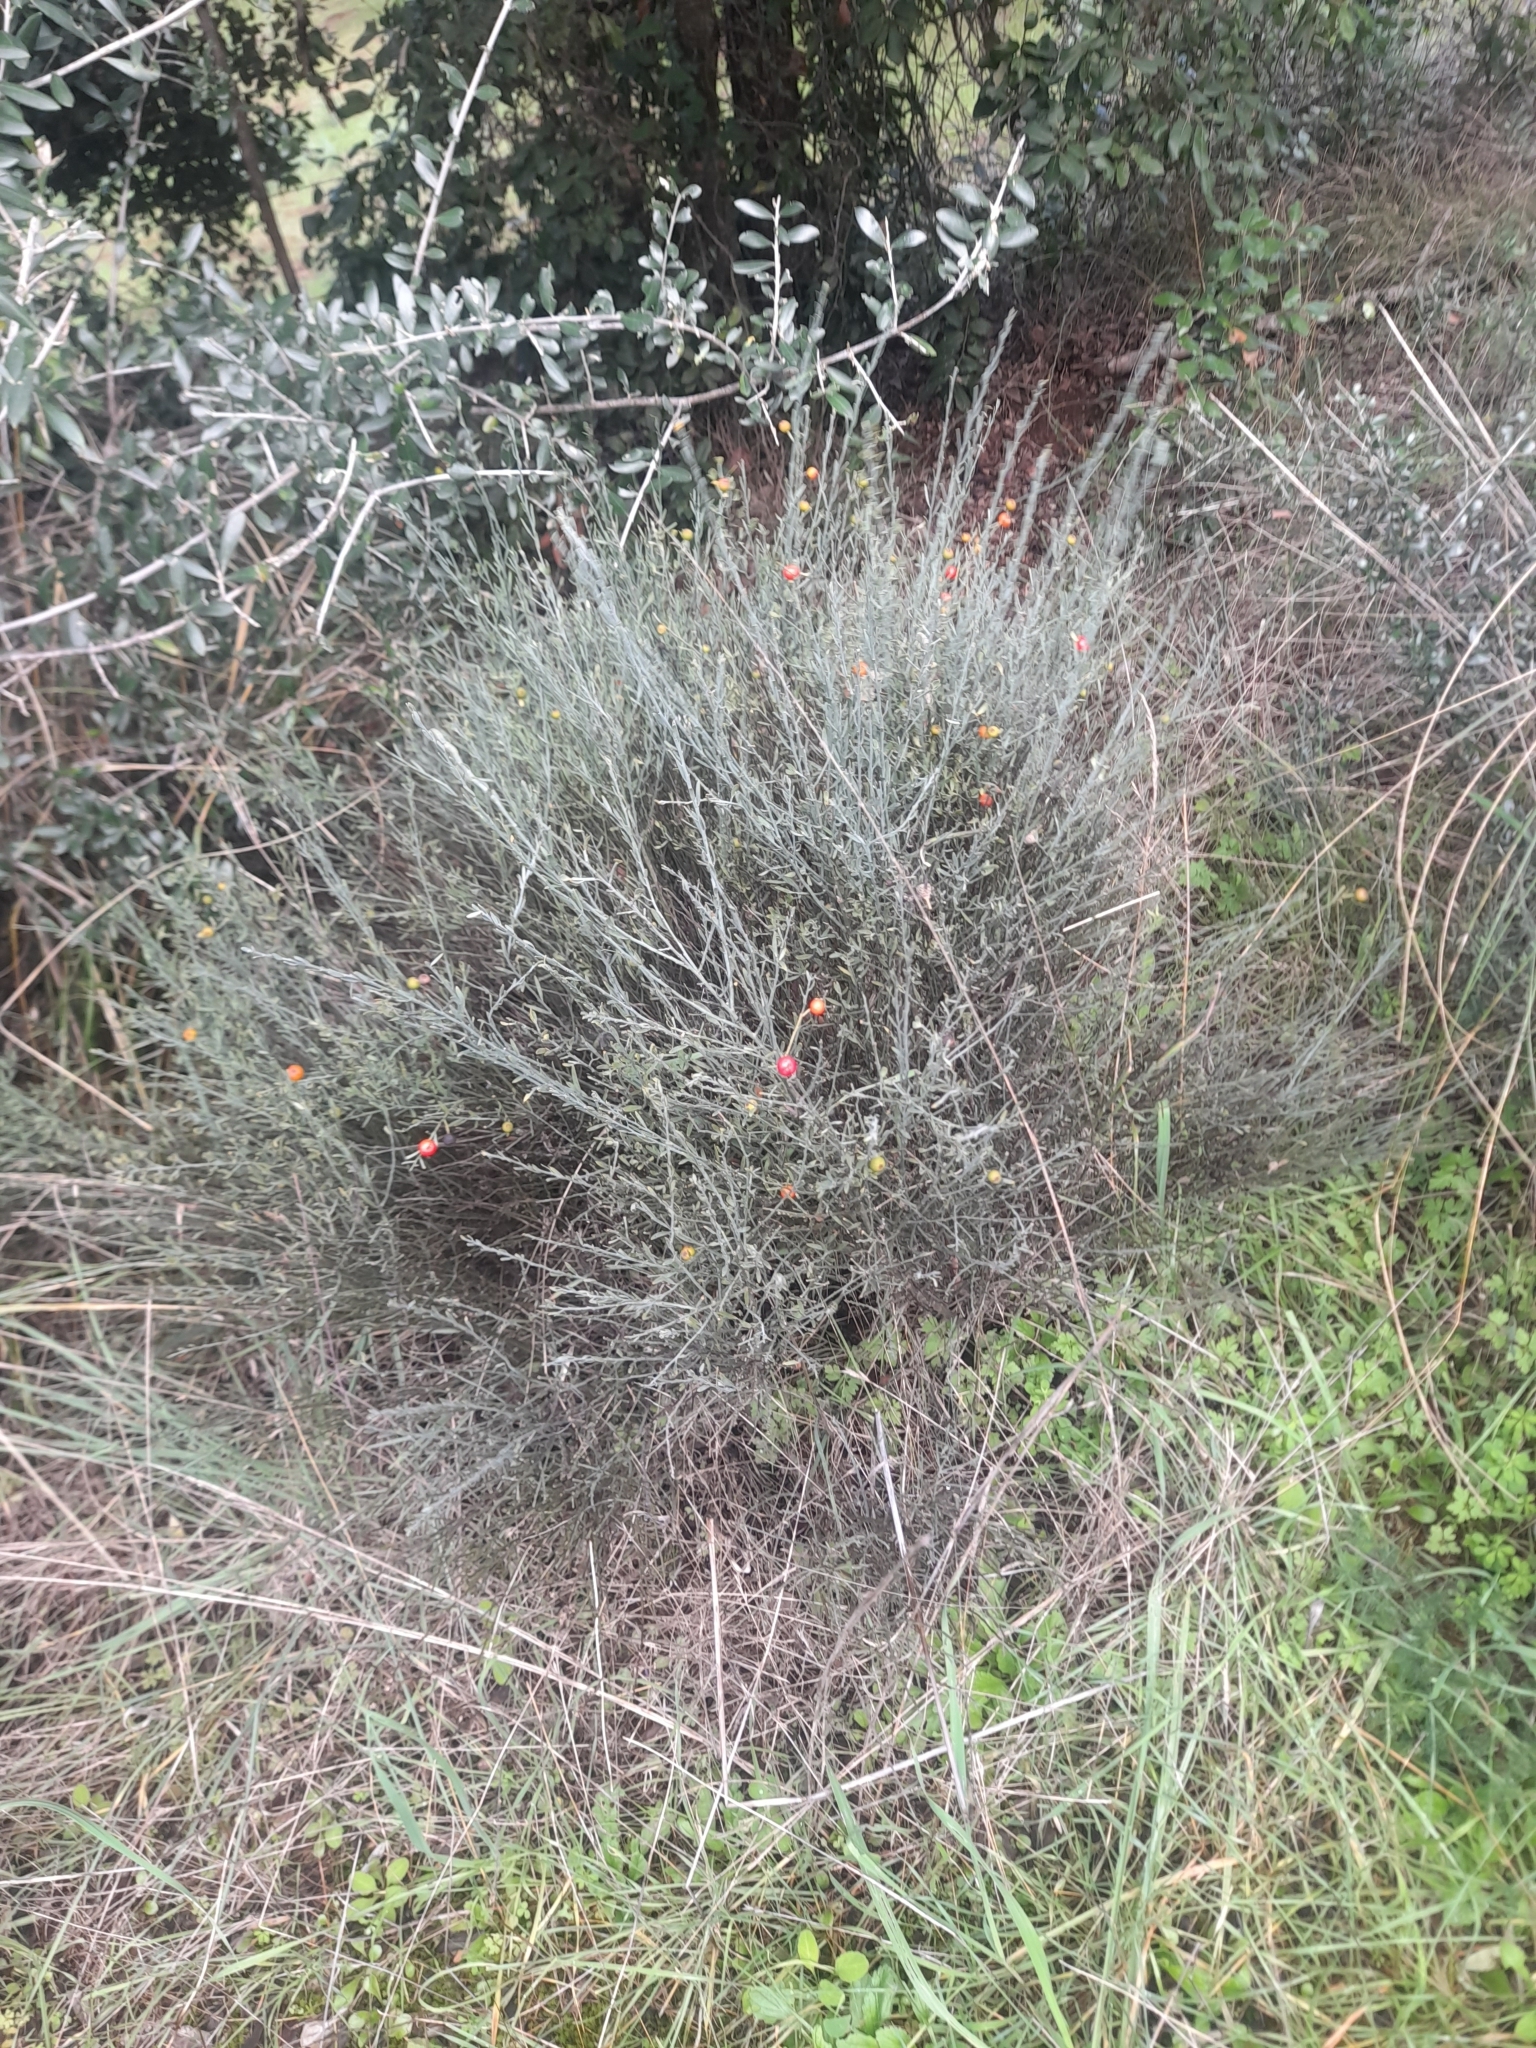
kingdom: Plantae
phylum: Tracheophyta
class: Magnoliopsida
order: Santalales
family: Santalaceae
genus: Osyris
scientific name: Osyris alba
